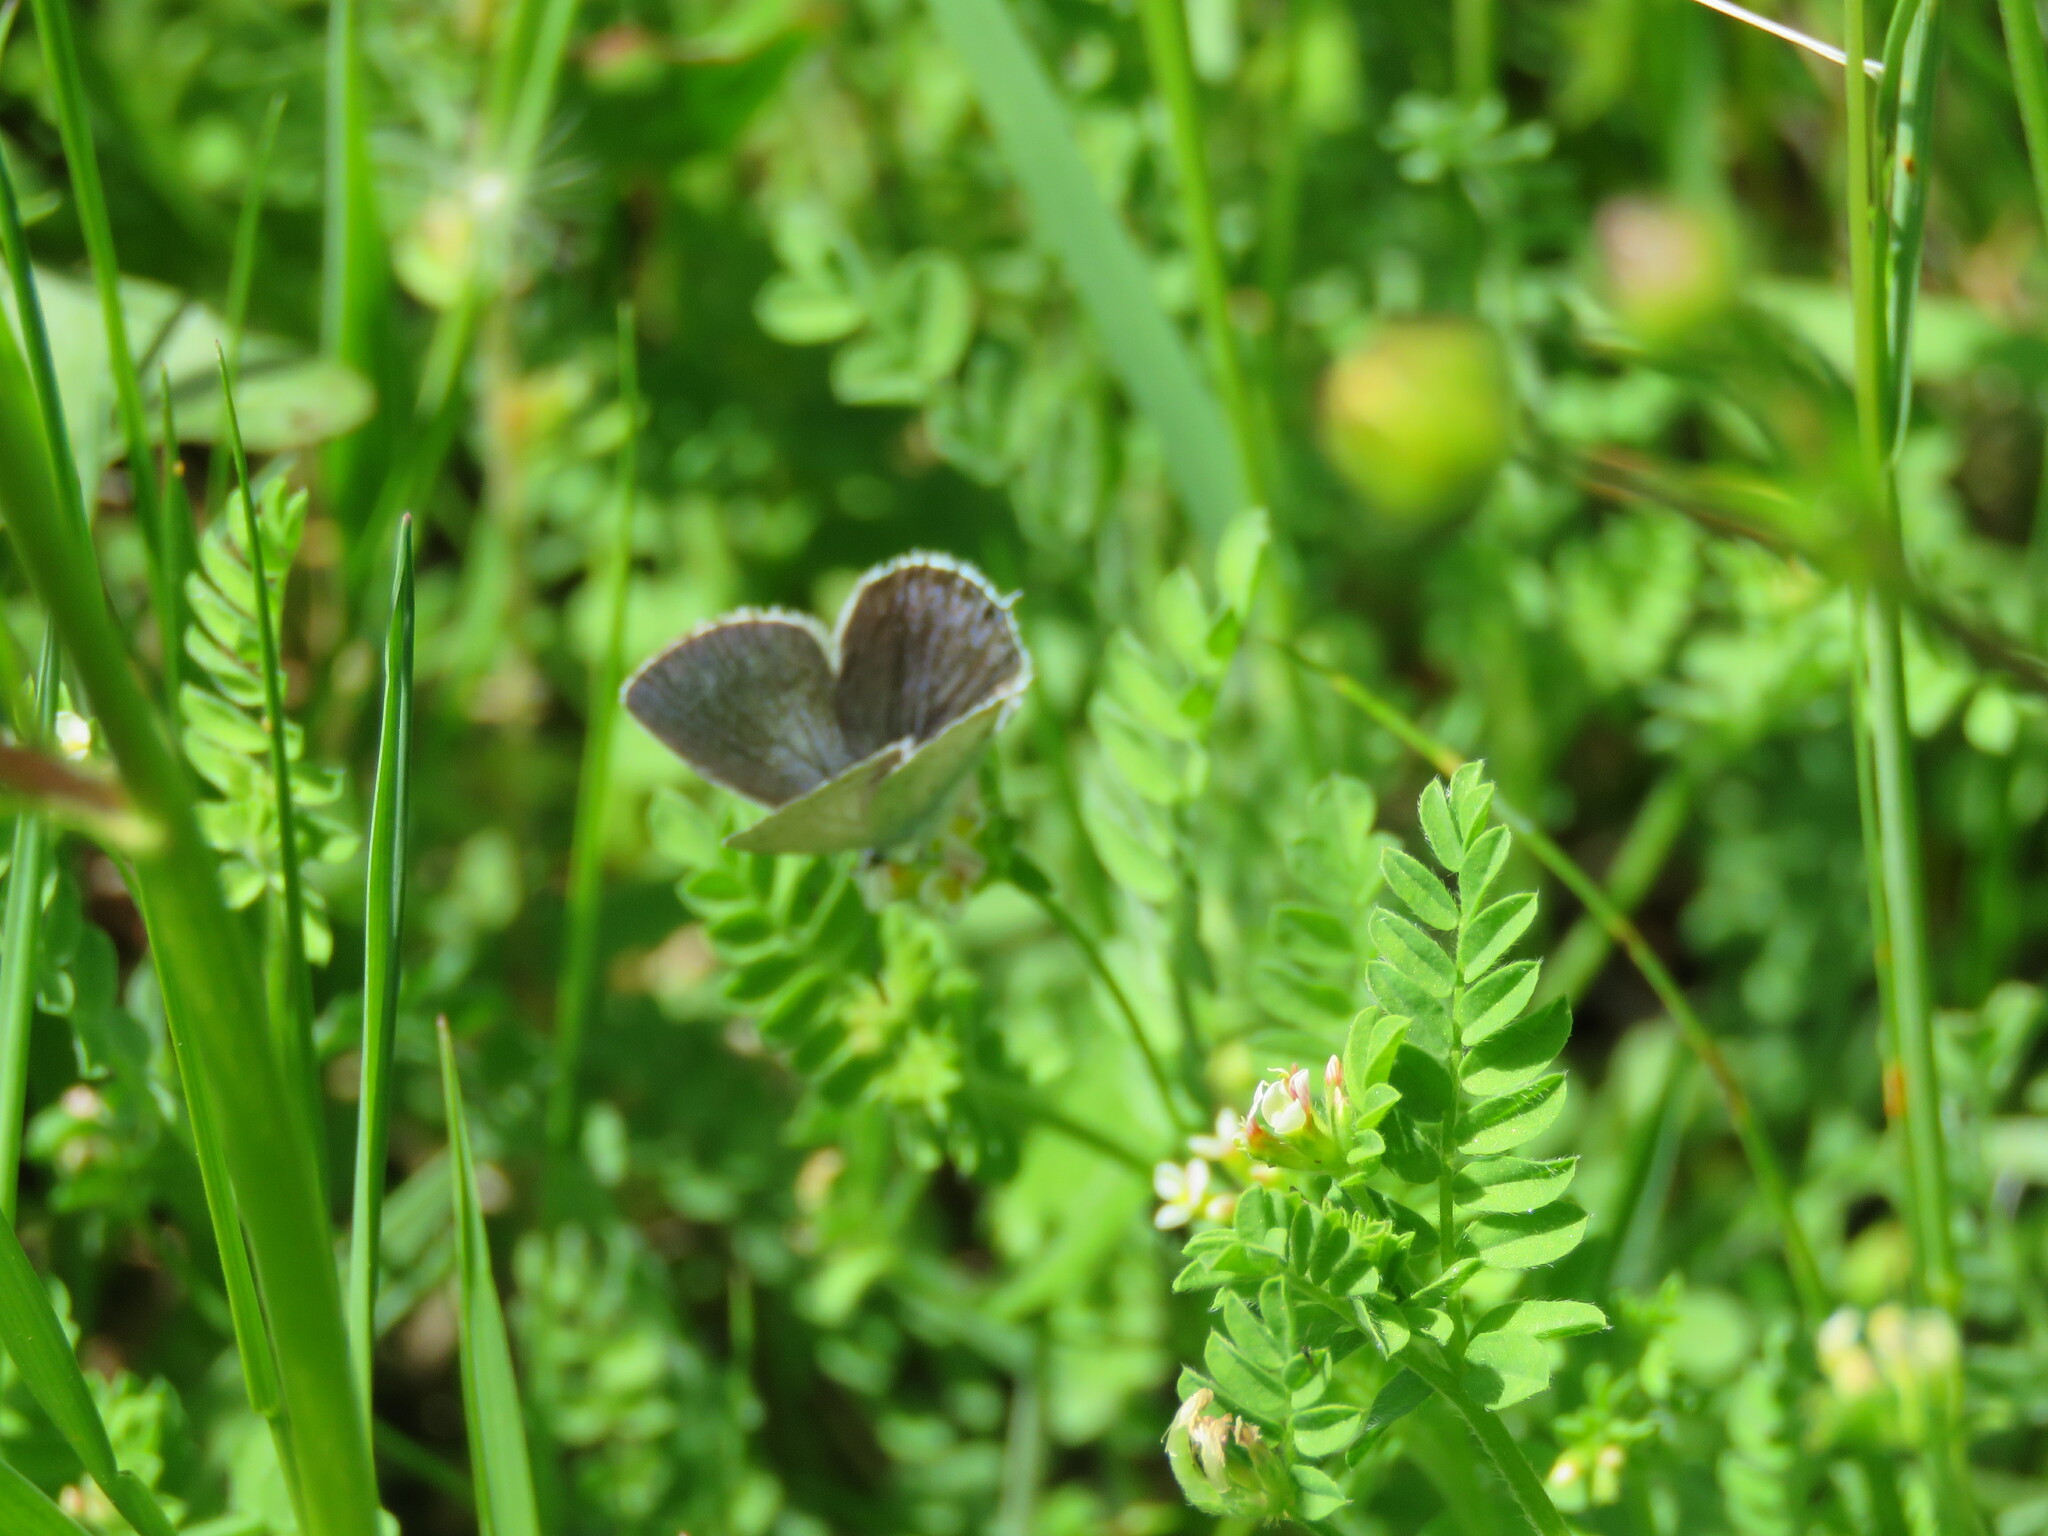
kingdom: Animalia
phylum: Arthropoda
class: Insecta
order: Lepidoptera
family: Lycaenidae
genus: Glaucopsyche
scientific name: Glaucopsyche alexis
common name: Green-underside blue
